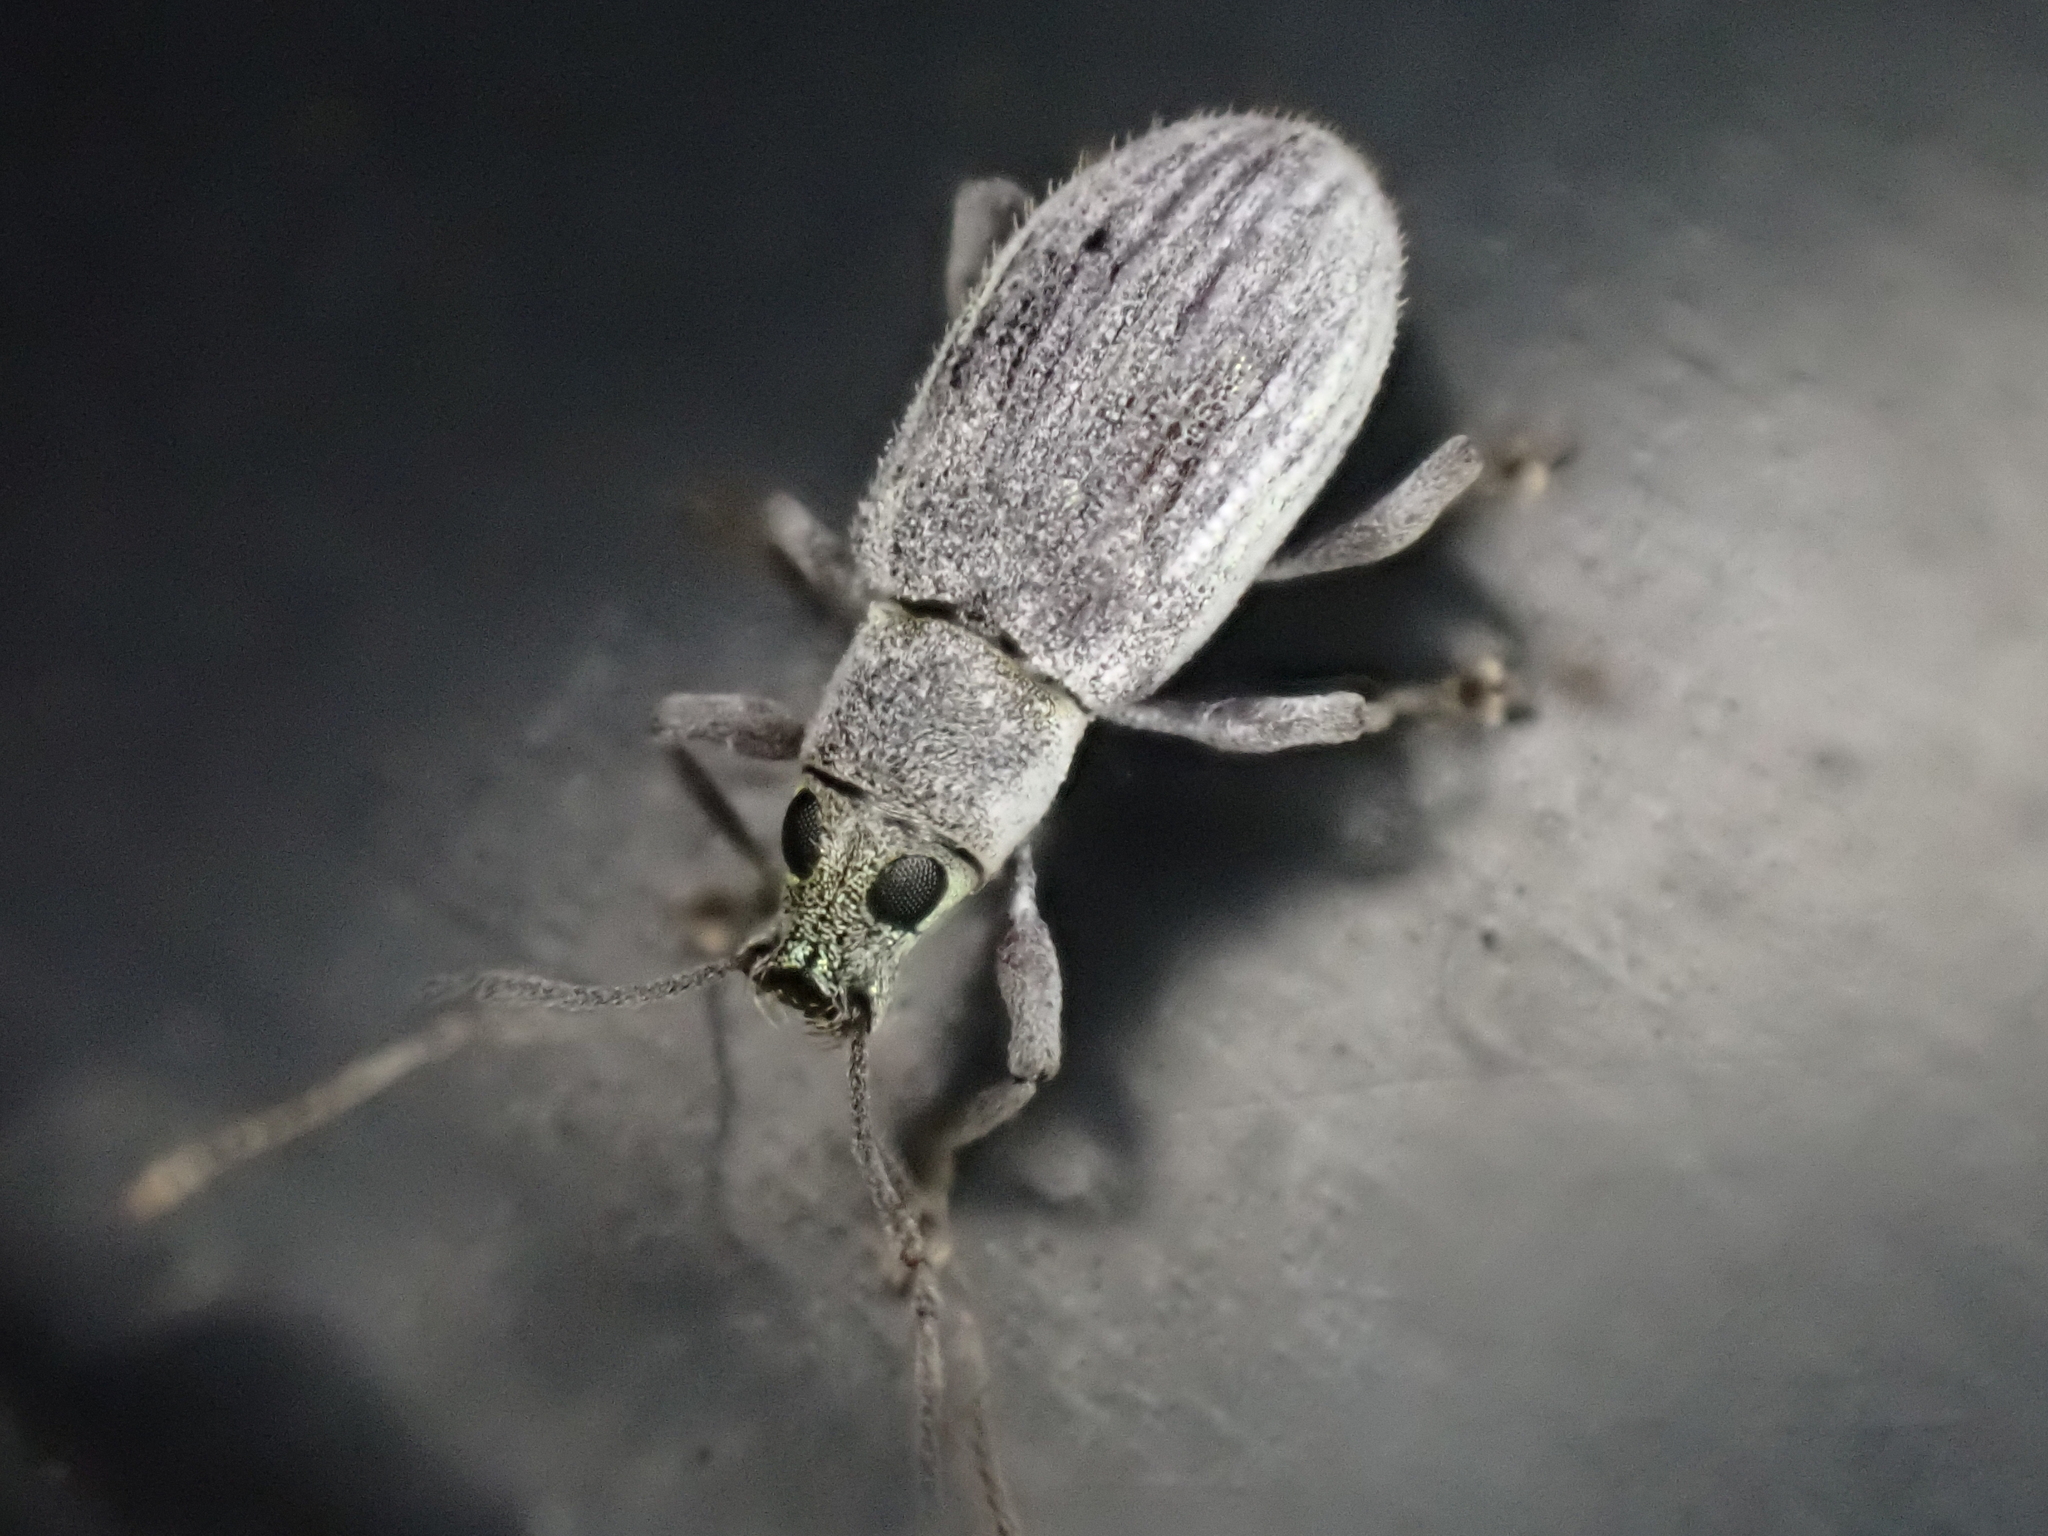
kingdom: Animalia
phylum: Arthropoda
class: Insecta
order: Coleoptera
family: Curculionidae
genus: Cyrtepistomus
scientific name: Cyrtepistomus castaneus
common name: Weevil
